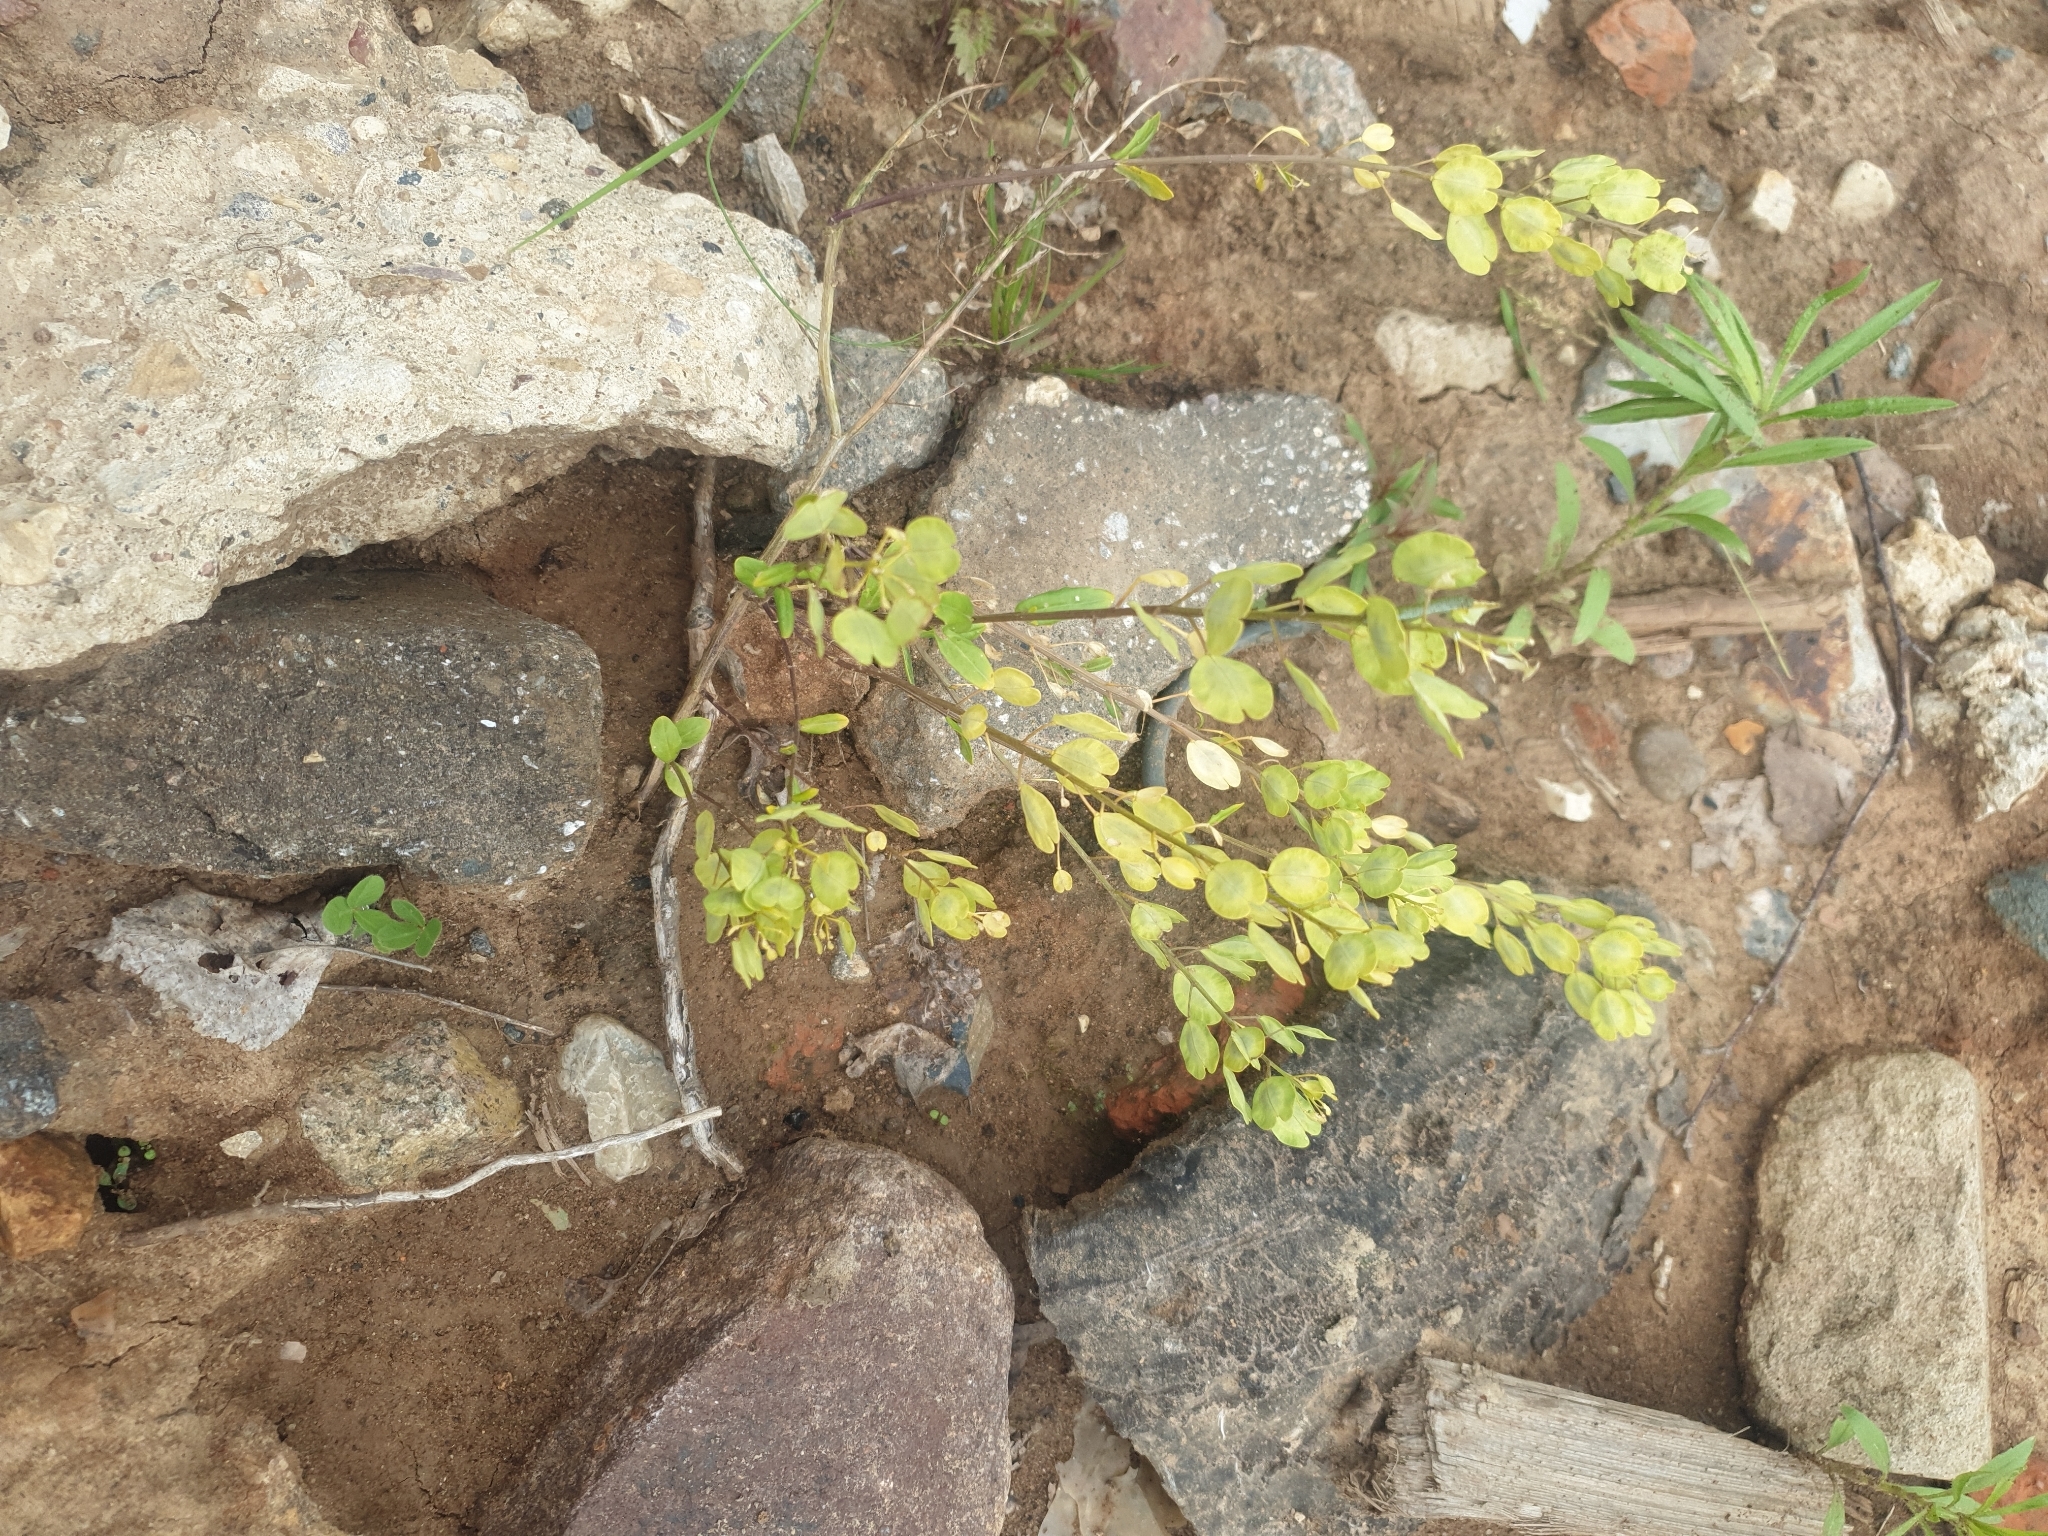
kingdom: Plantae
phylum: Tracheophyta
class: Magnoliopsida
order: Brassicales
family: Brassicaceae
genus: Thlaspi
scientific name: Thlaspi arvense
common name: Field pennycress
